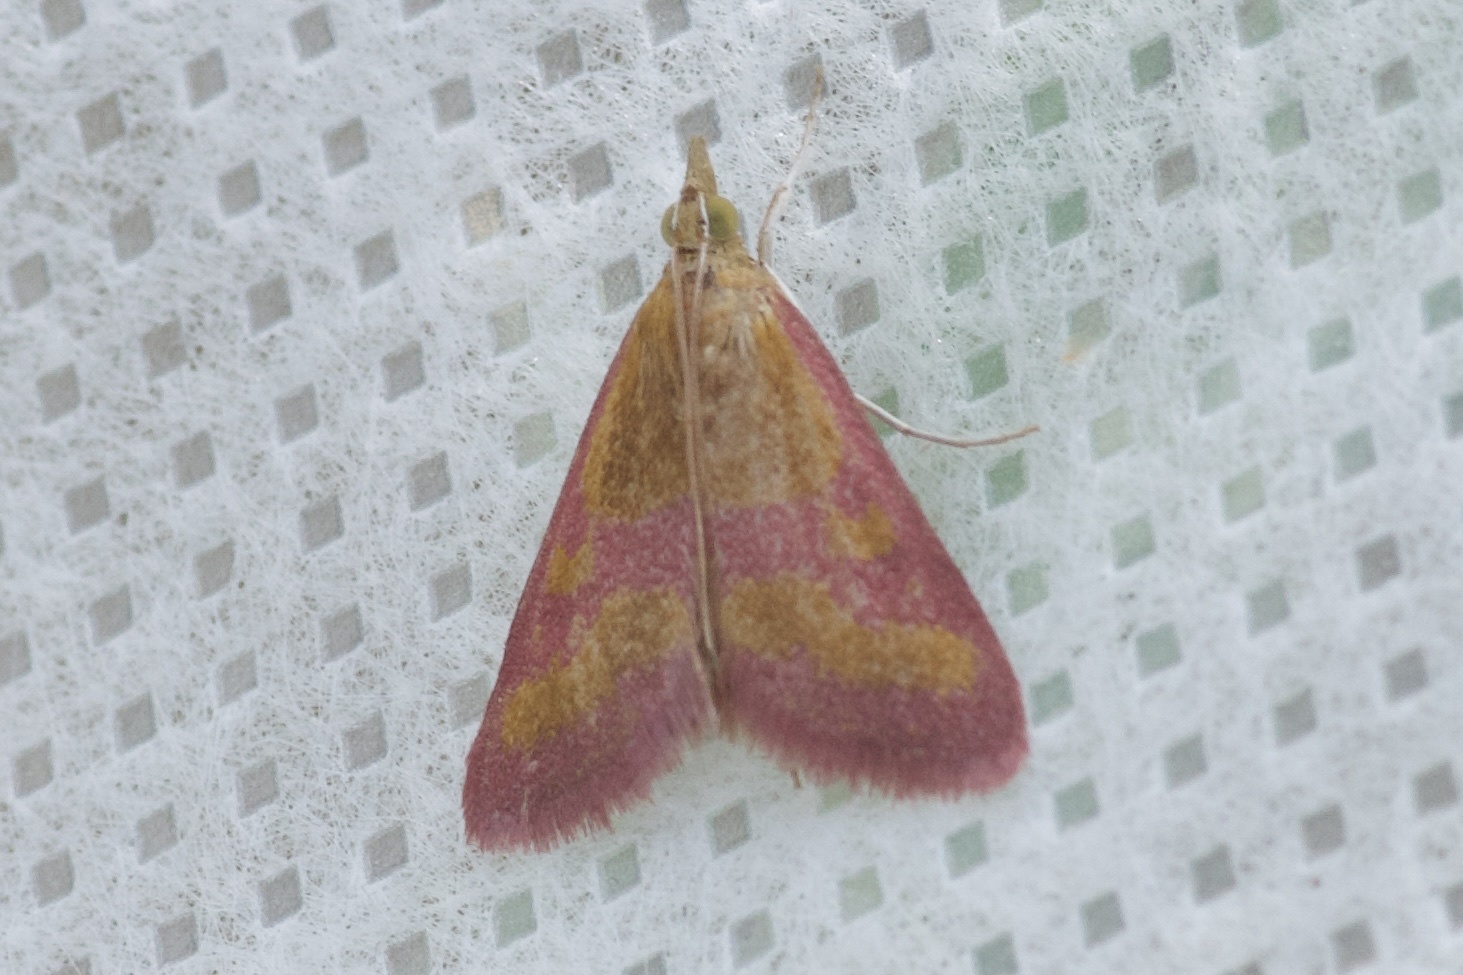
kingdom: Animalia
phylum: Arthropoda
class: Insecta
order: Lepidoptera
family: Crambidae
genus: Pyrausta
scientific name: Pyrausta laticlavia
